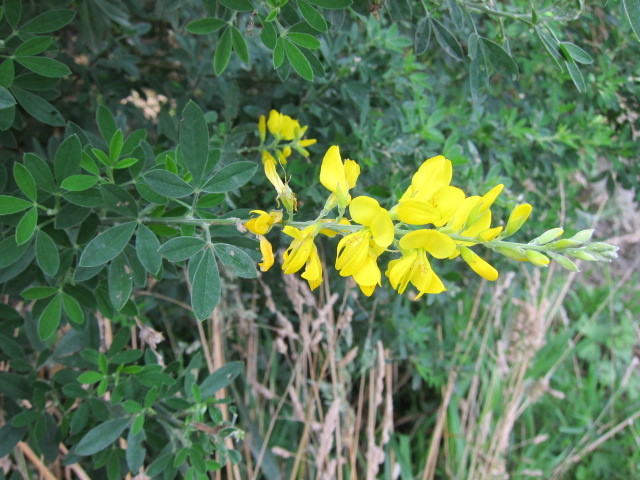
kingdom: Plantae
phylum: Tracheophyta
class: Magnoliopsida
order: Fabales
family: Fabaceae
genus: Genista
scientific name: Genista stenopetala
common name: Leafy broom
